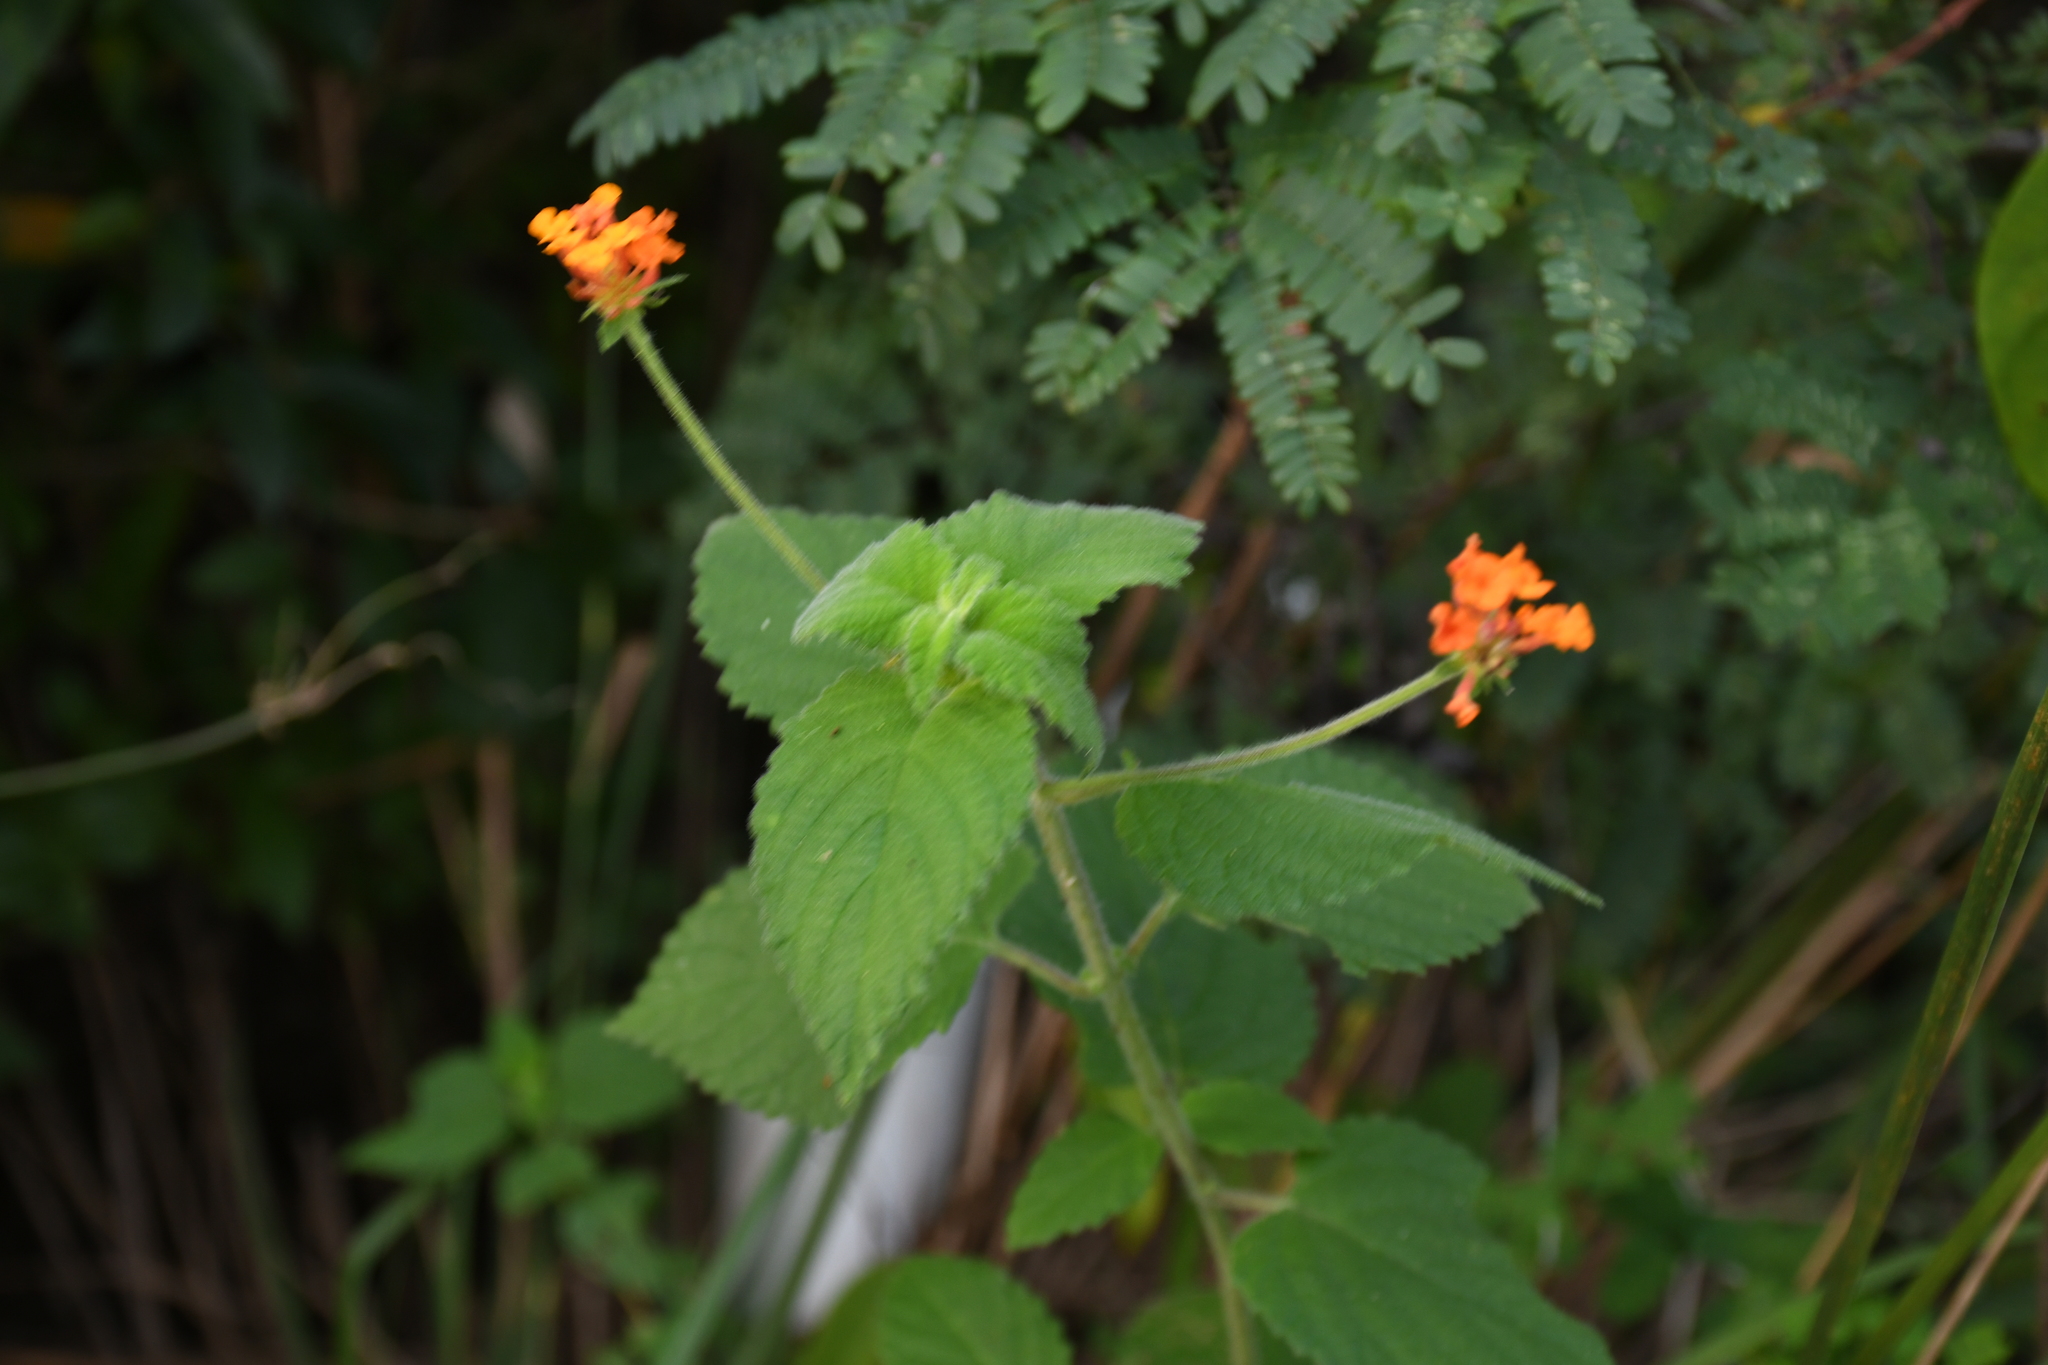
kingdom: Plantae
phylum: Tracheophyta
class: Magnoliopsida
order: Lamiales
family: Verbenaceae
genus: Lantana
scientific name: Lantana camara
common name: Lantana
